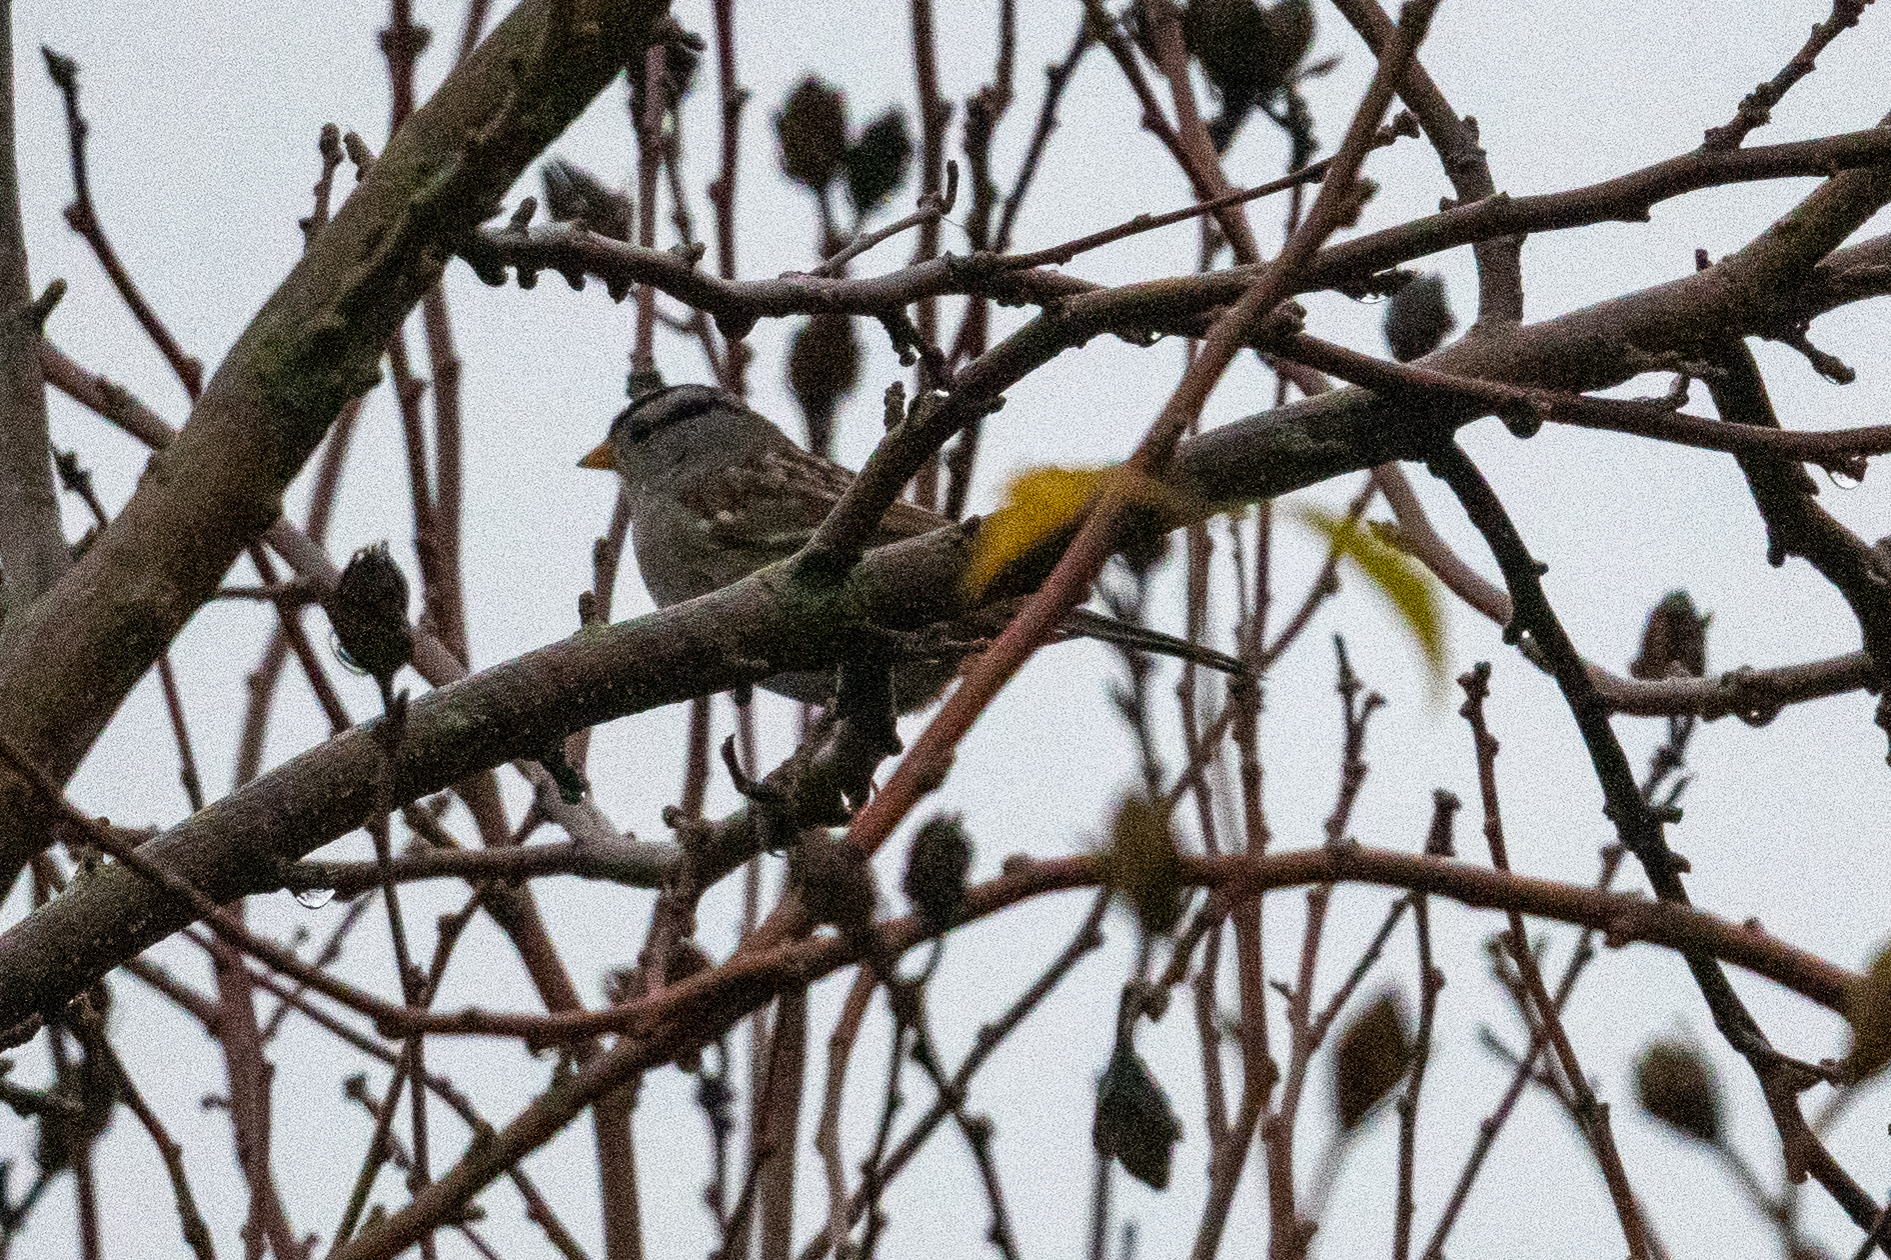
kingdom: Animalia
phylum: Chordata
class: Aves
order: Passeriformes
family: Passerellidae
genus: Zonotrichia
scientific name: Zonotrichia leucophrys
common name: White-crowned sparrow
